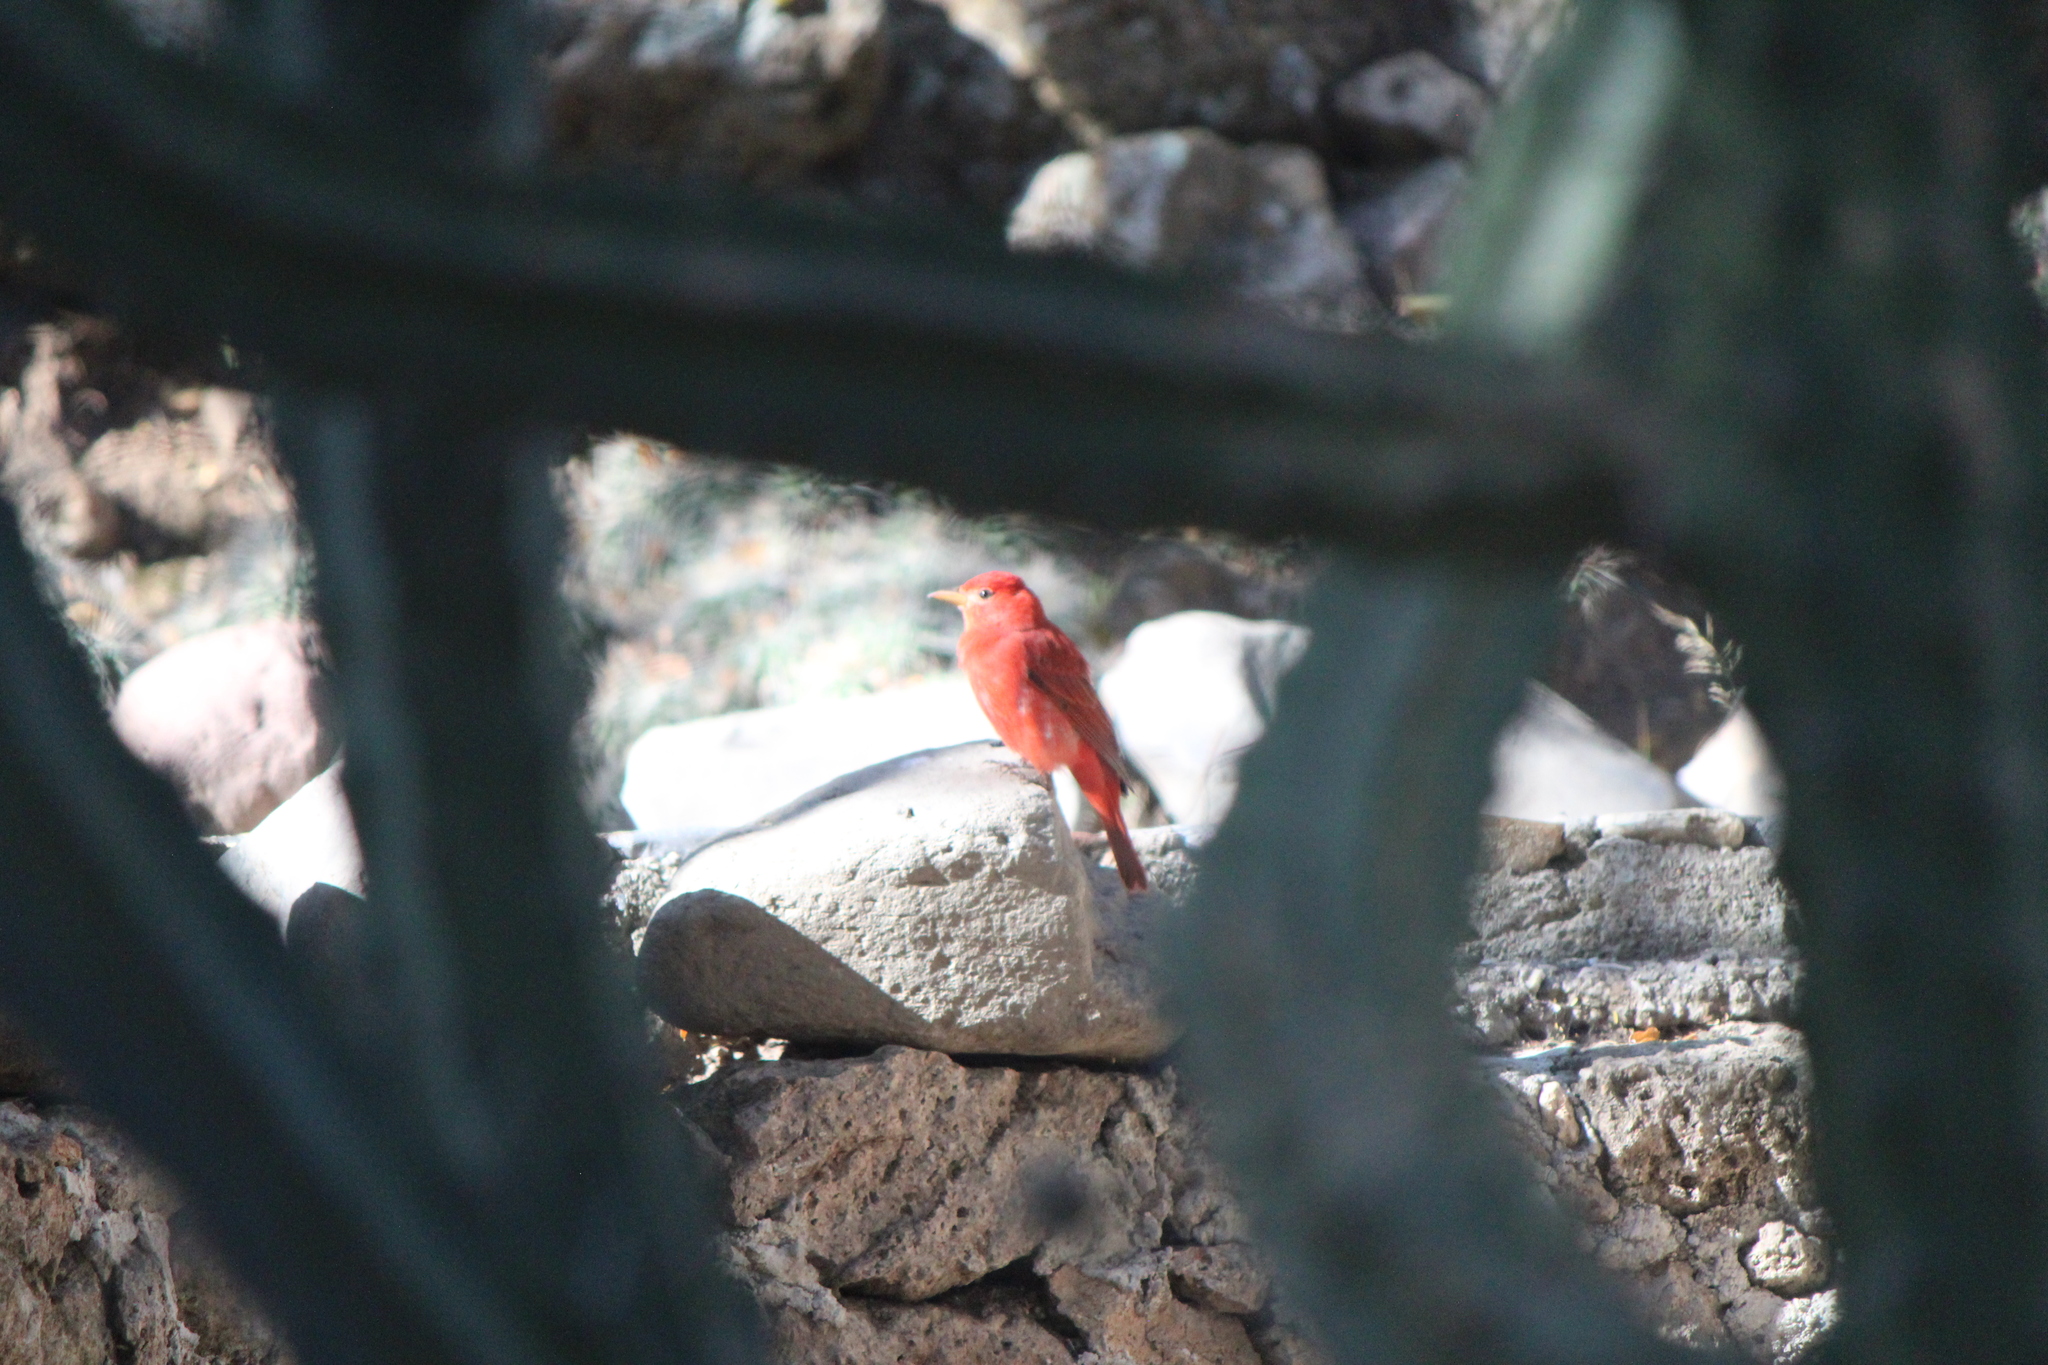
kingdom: Animalia
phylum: Chordata
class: Aves
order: Passeriformes
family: Cardinalidae
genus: Piranga
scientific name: Piranga rubra
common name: Summer tanager
